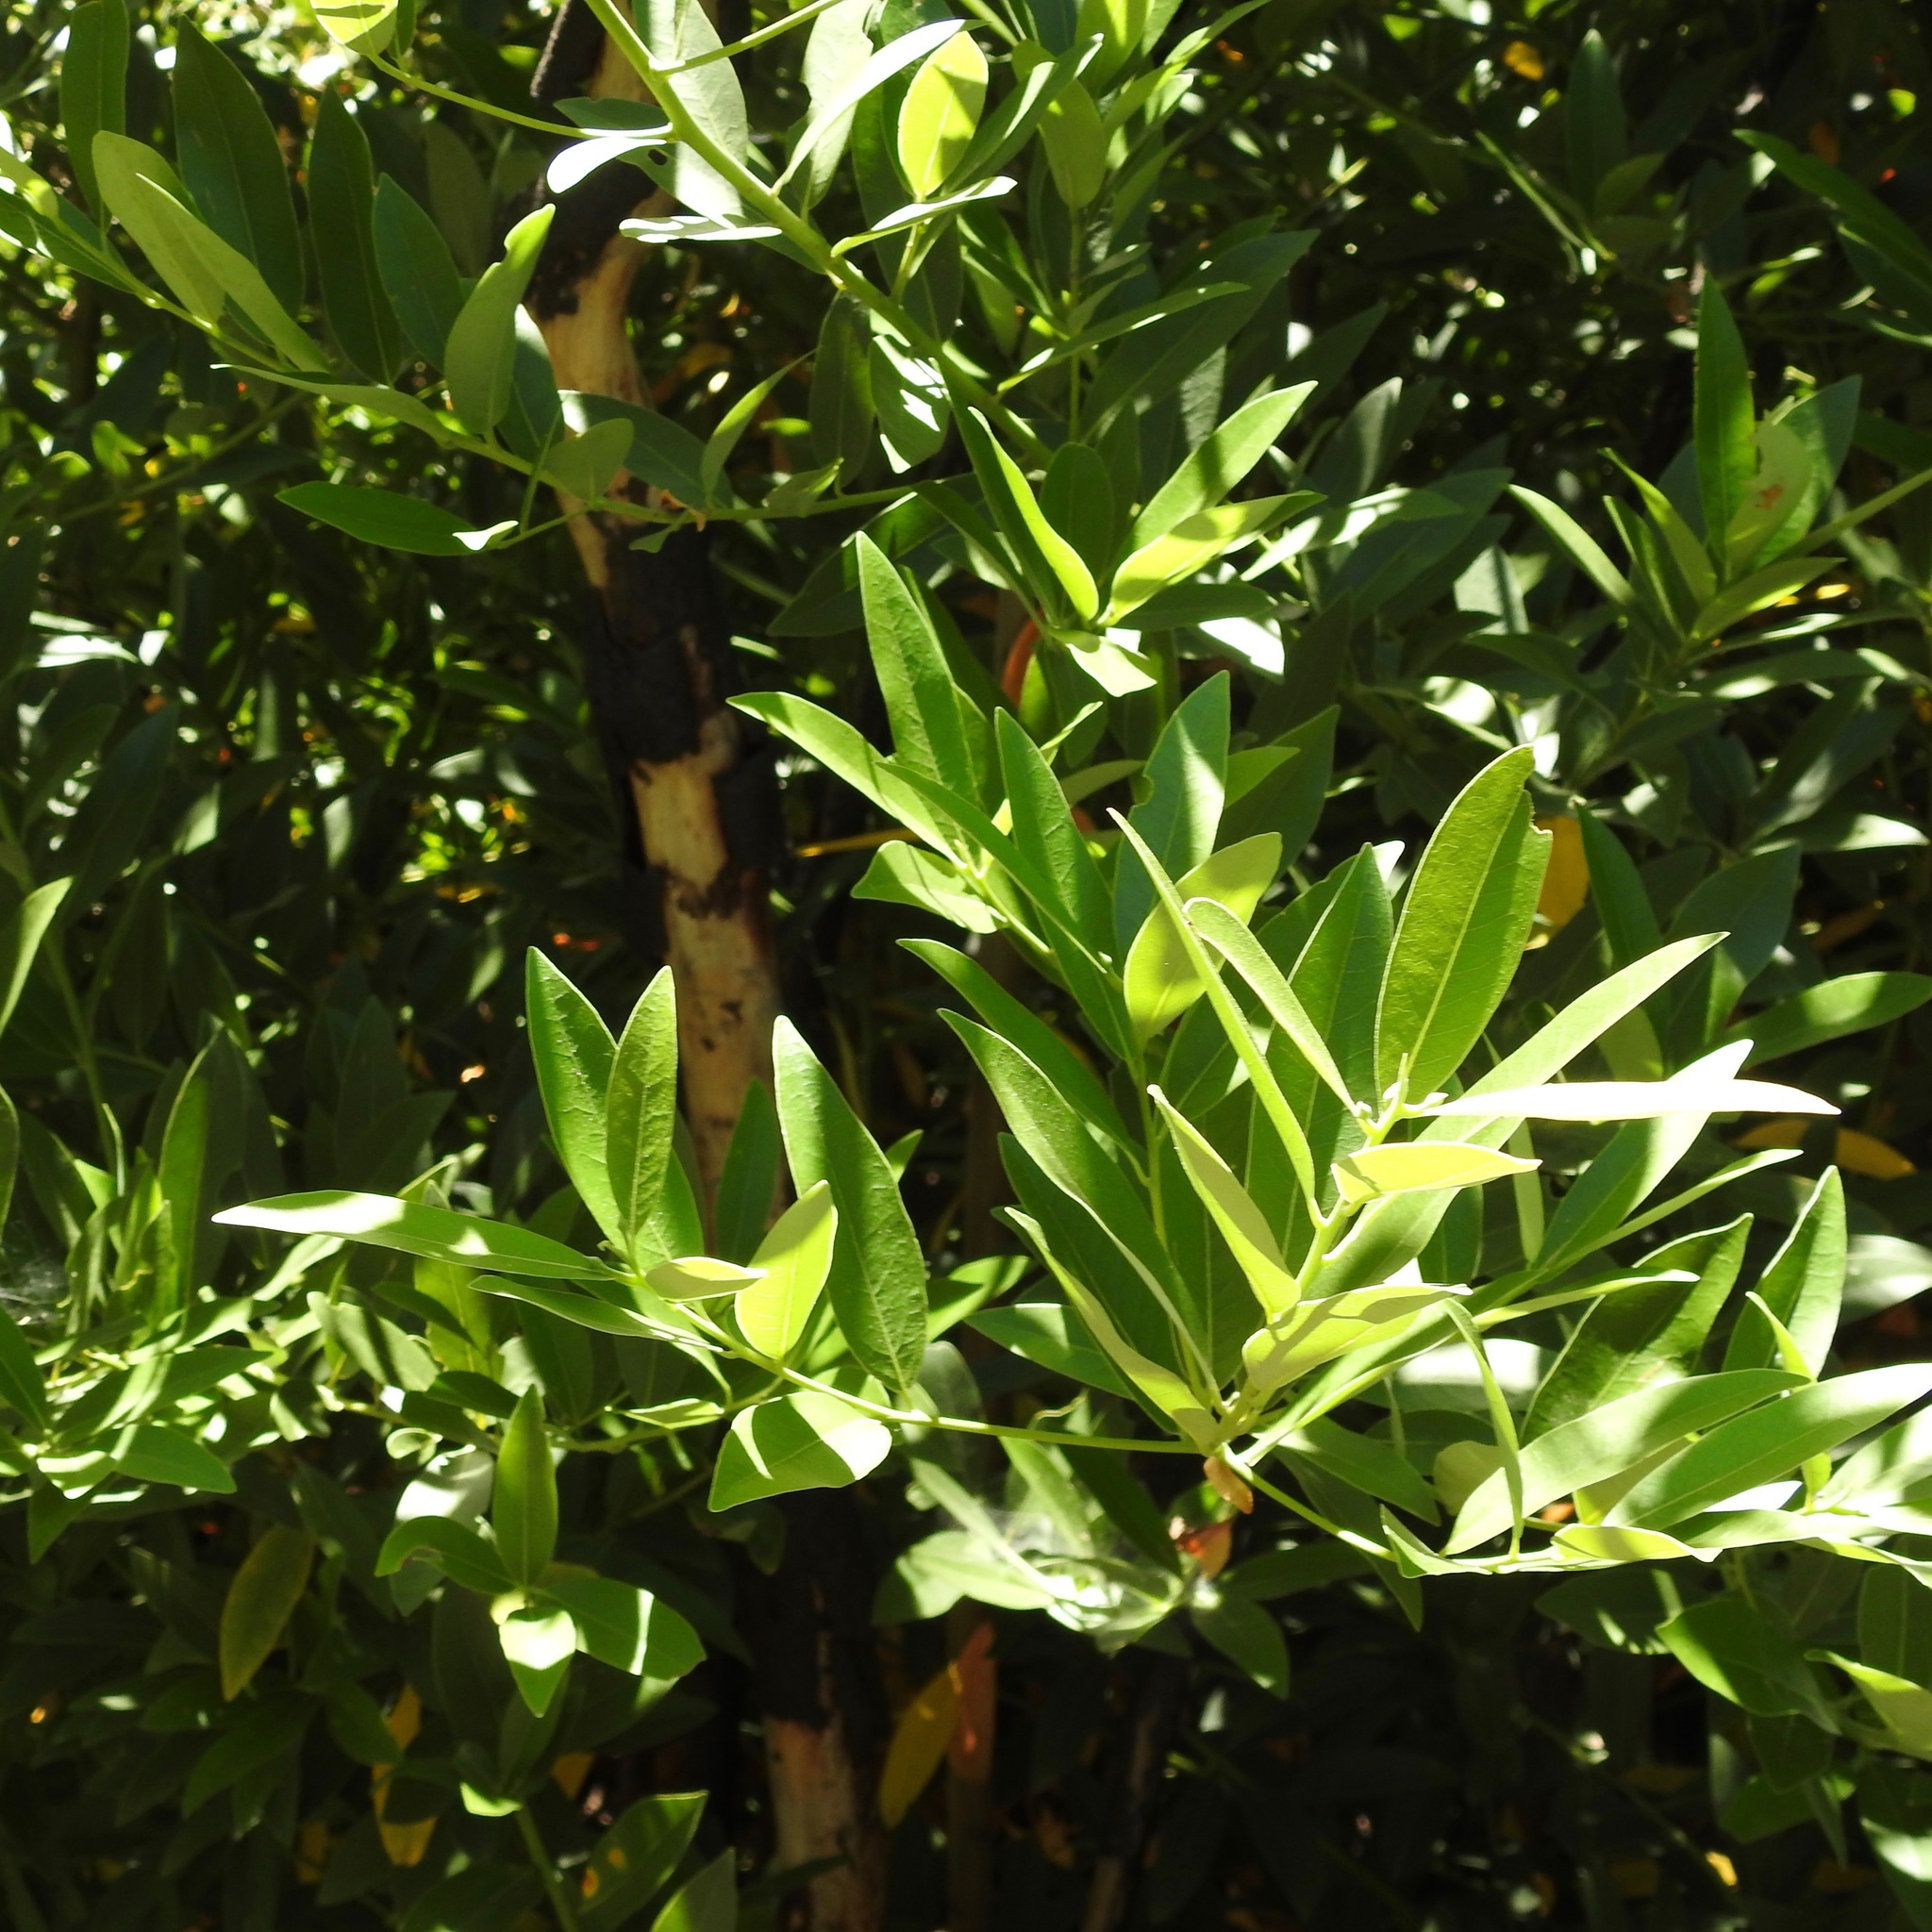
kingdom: Plantae
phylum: Tracheophyta
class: Magnoliopsida
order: Laurales
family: Lauraceae
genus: Umbellularia
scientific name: Umbellularia californica
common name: California bay
